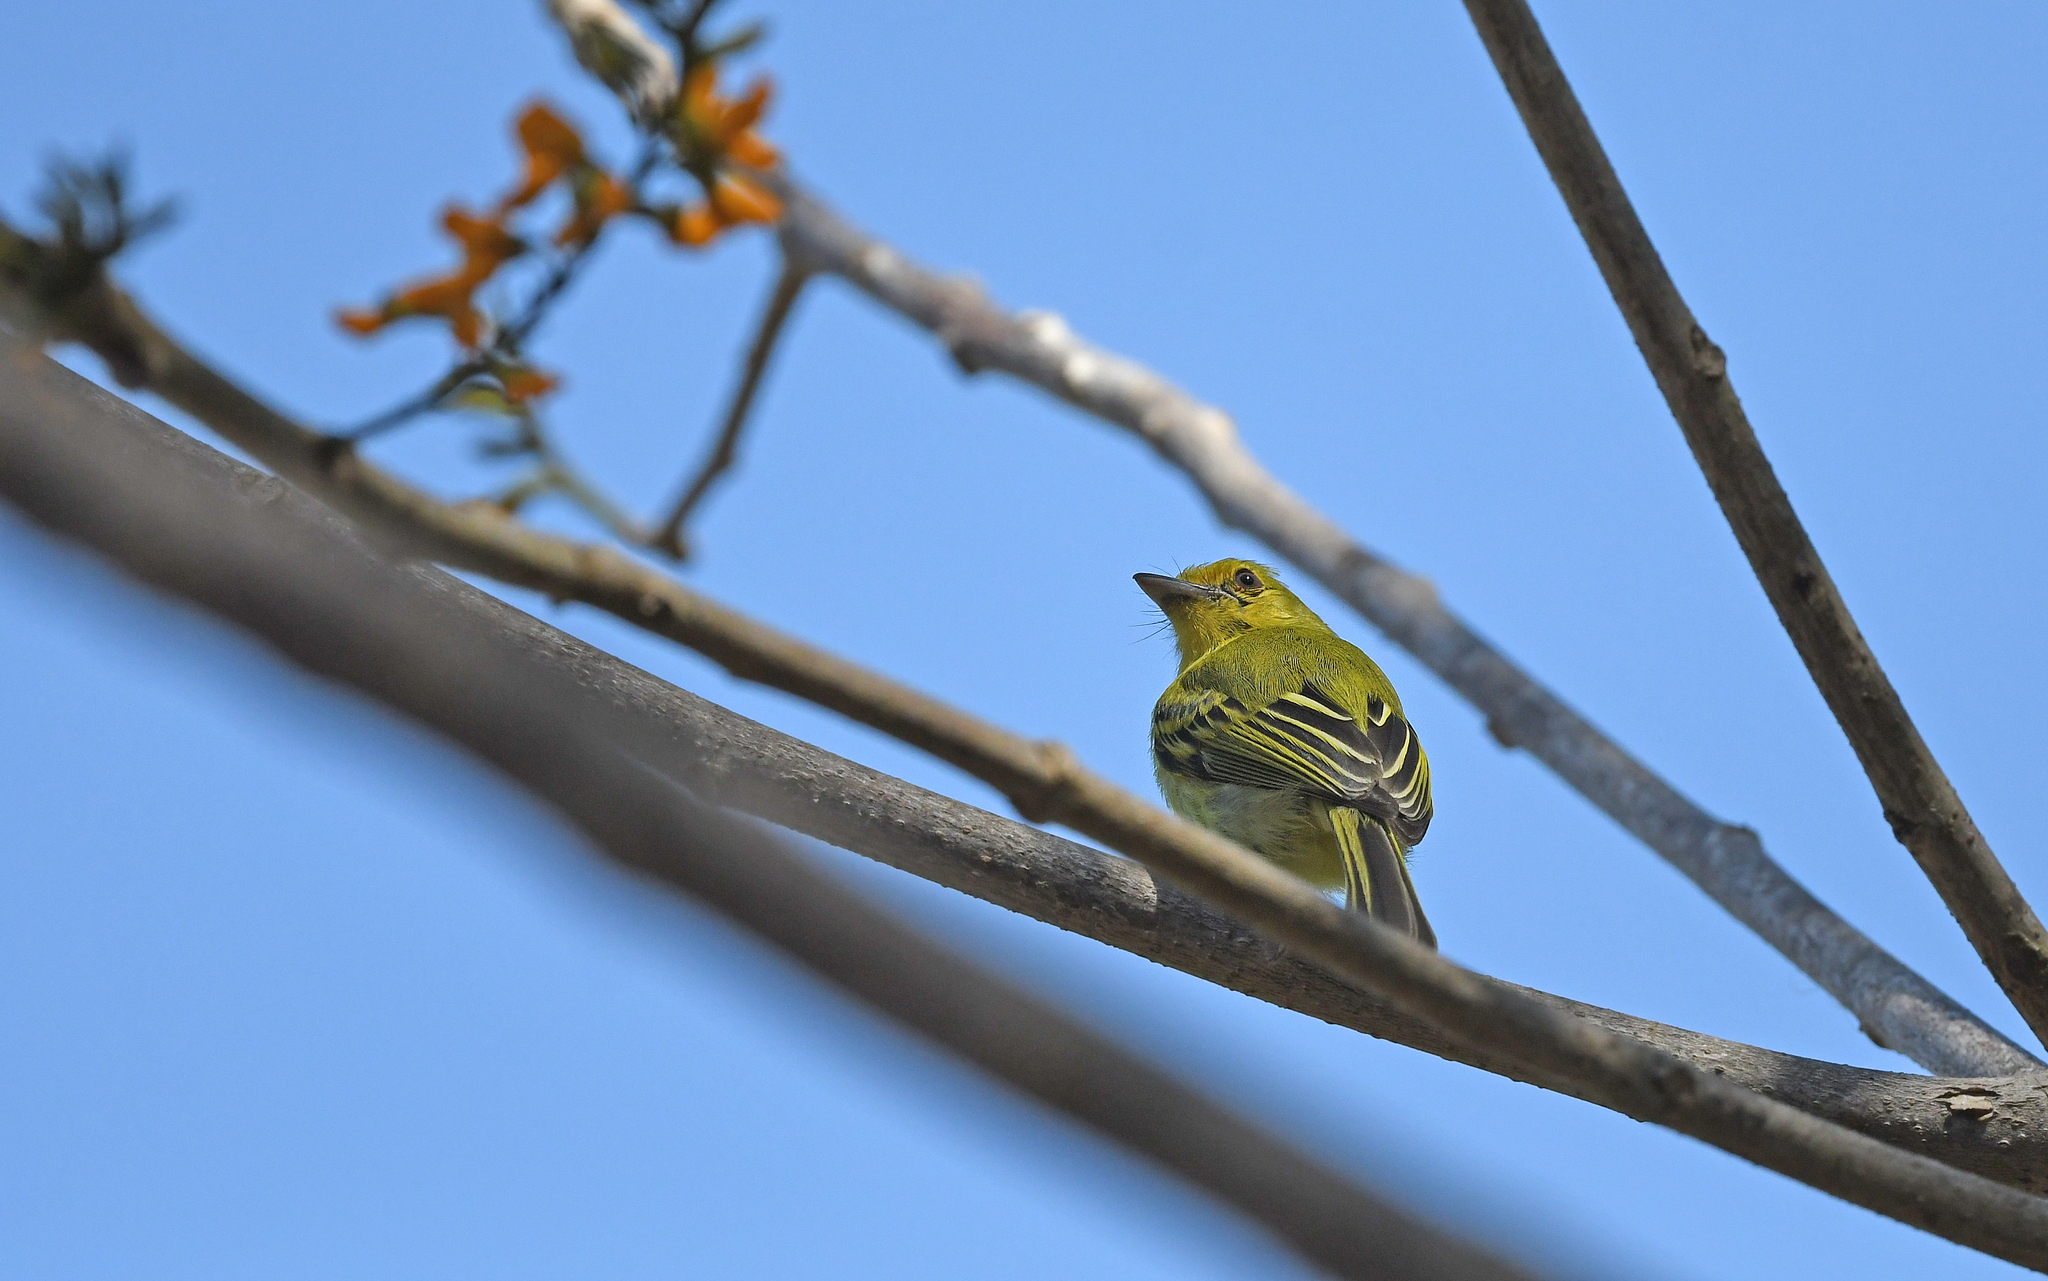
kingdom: Animalia
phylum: Chordata
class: Aves
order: Passeriformes
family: Tyrannidae
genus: Tolmomyias
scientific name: Tolmomyias flaviventris
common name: Ochre-lored flatbill
